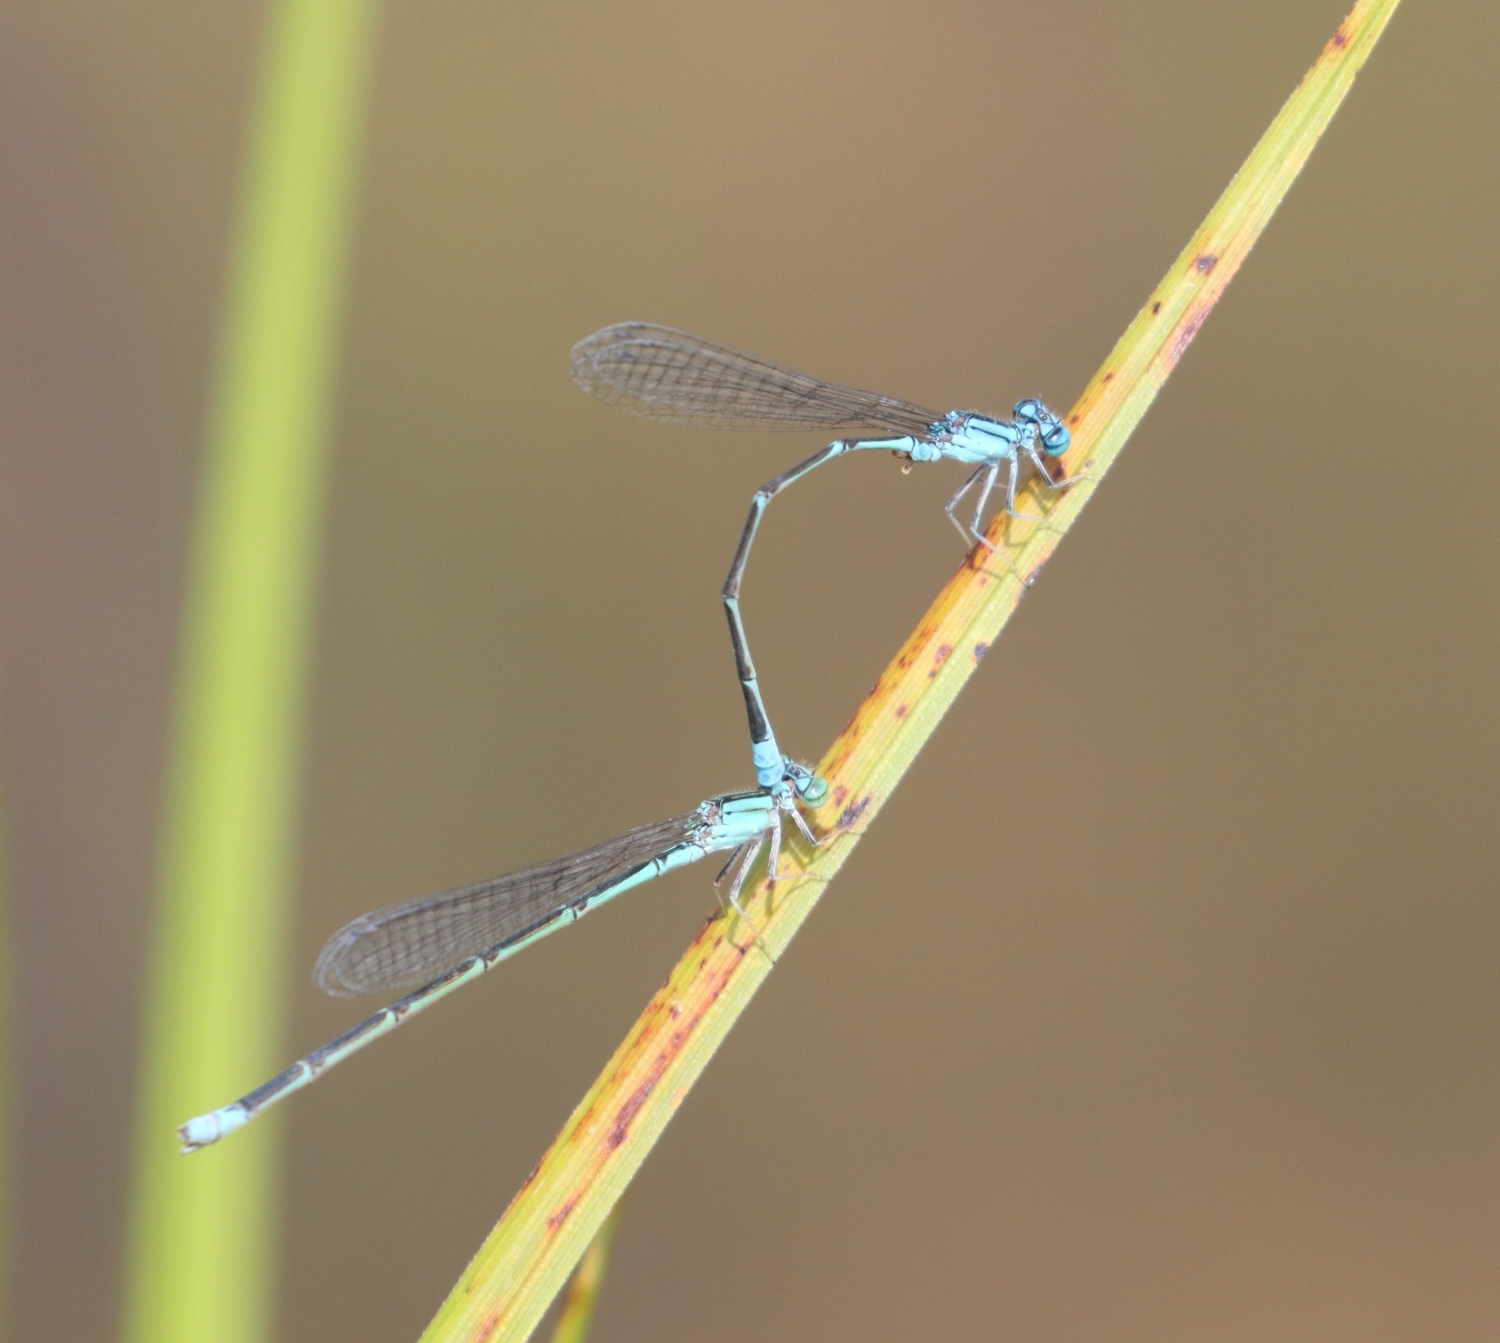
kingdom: Animalia
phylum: Arthropoda
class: Insecta
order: Odonata
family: Coenagrionidae
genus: Enallagma
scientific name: Enallagma traviatum
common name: Slender bluet
